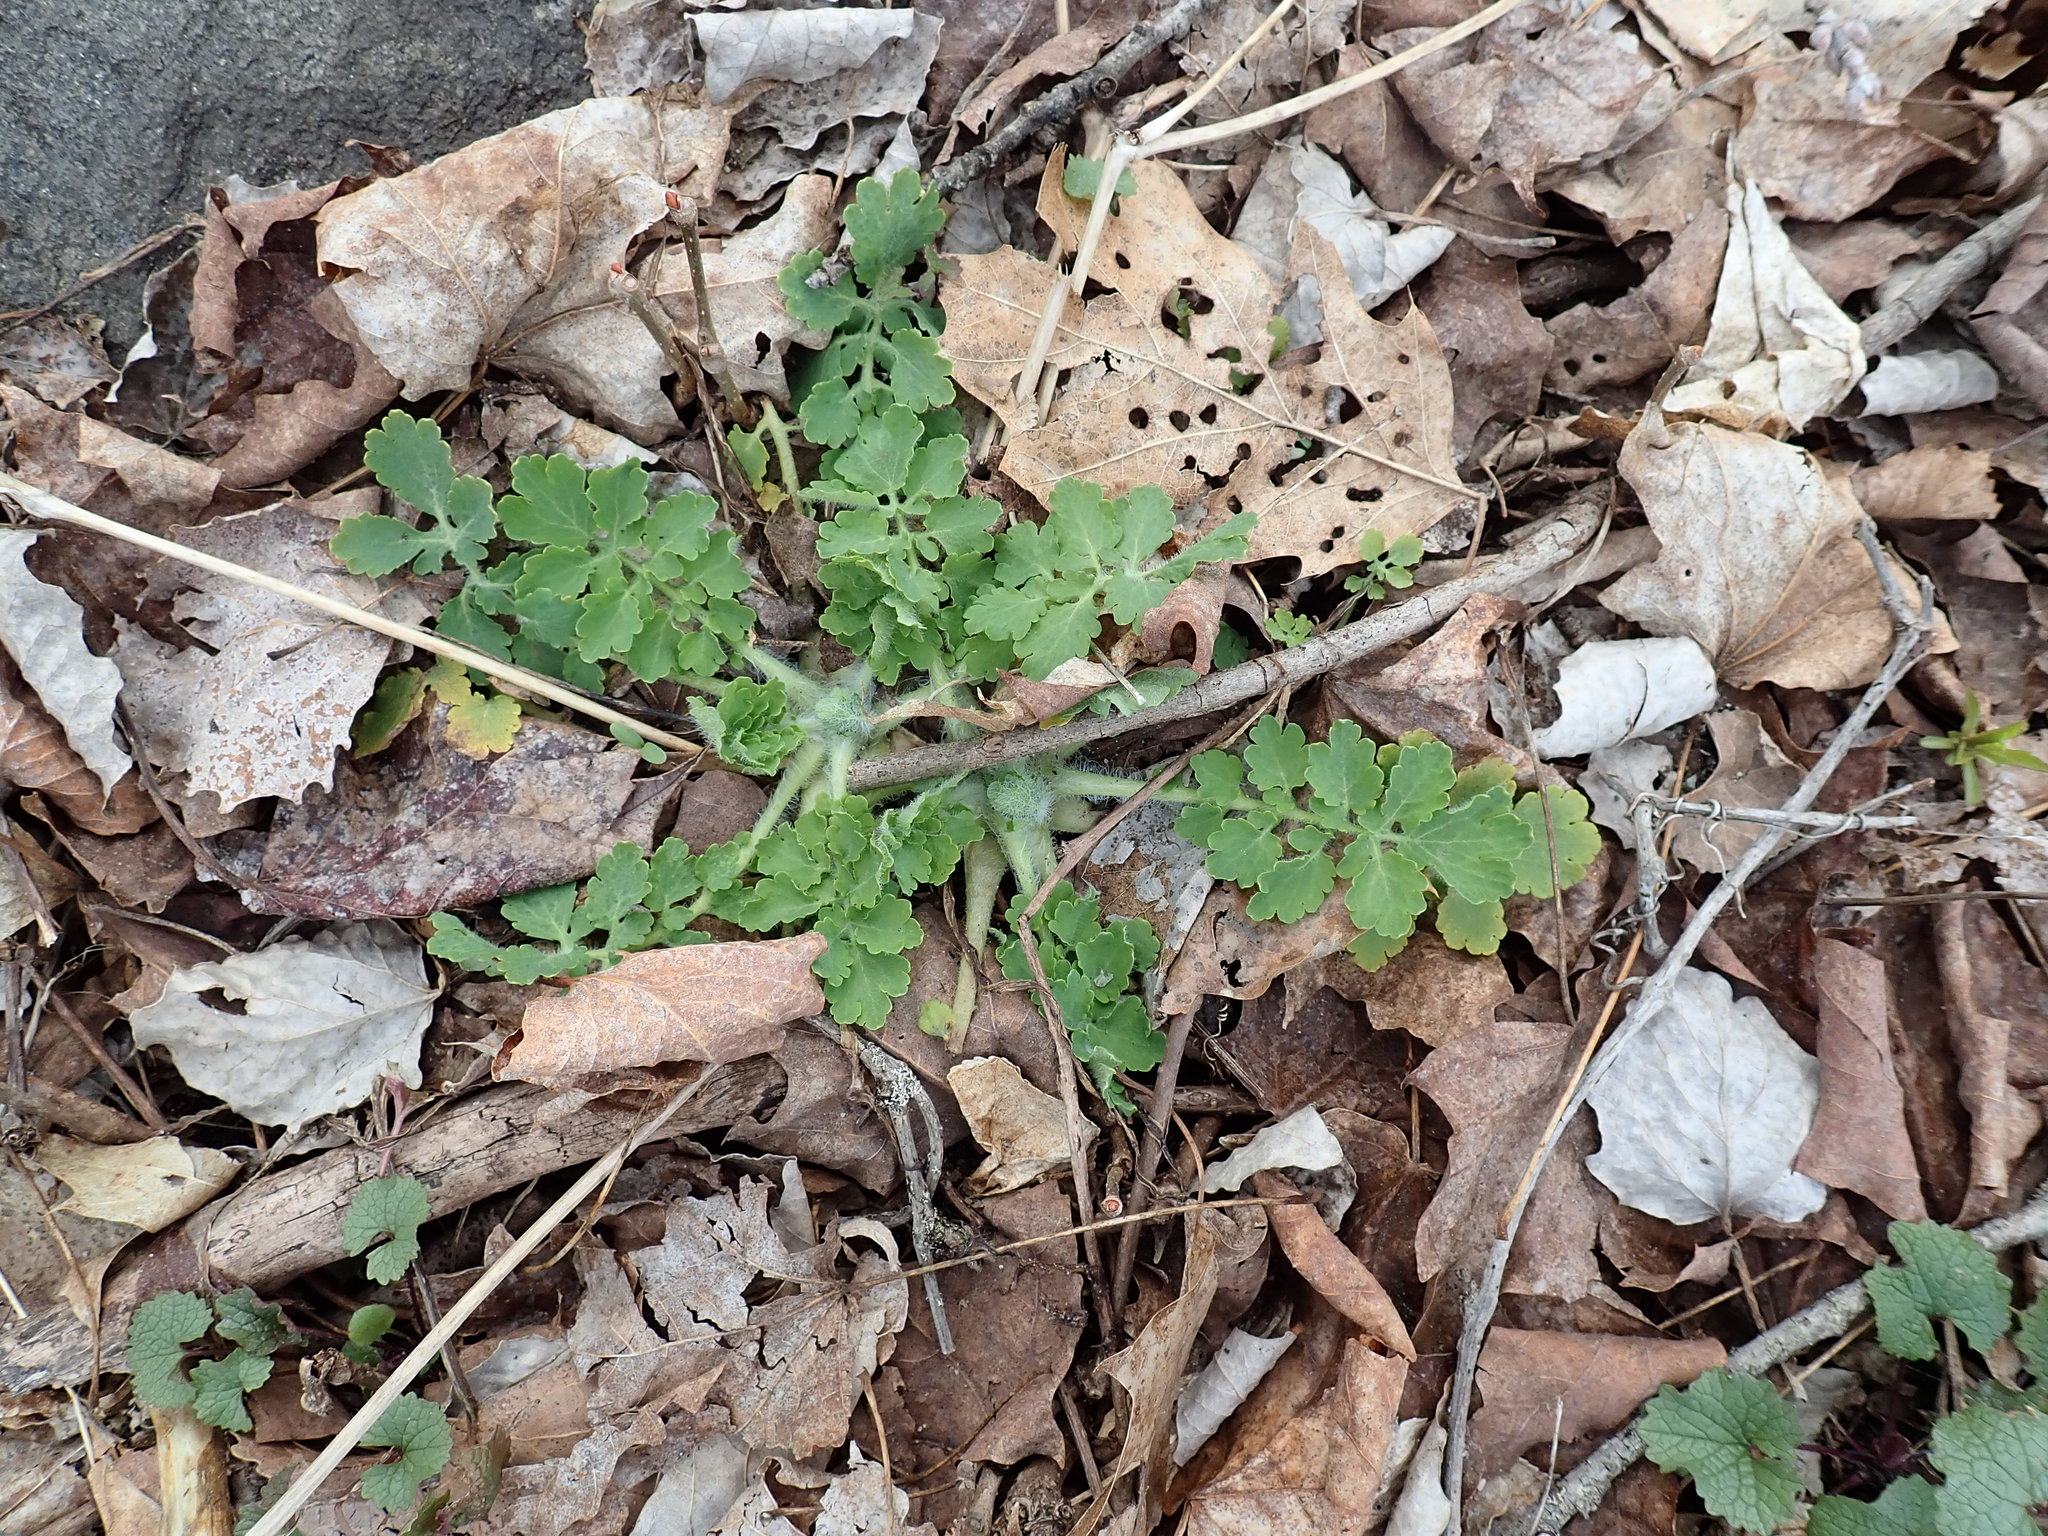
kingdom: Plantae
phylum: Tracheophyta
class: Magnoliopsida
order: Ranunculales
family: Papaveraceae
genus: Chelidonium
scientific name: Chelidonium majus
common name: Greater celandine
